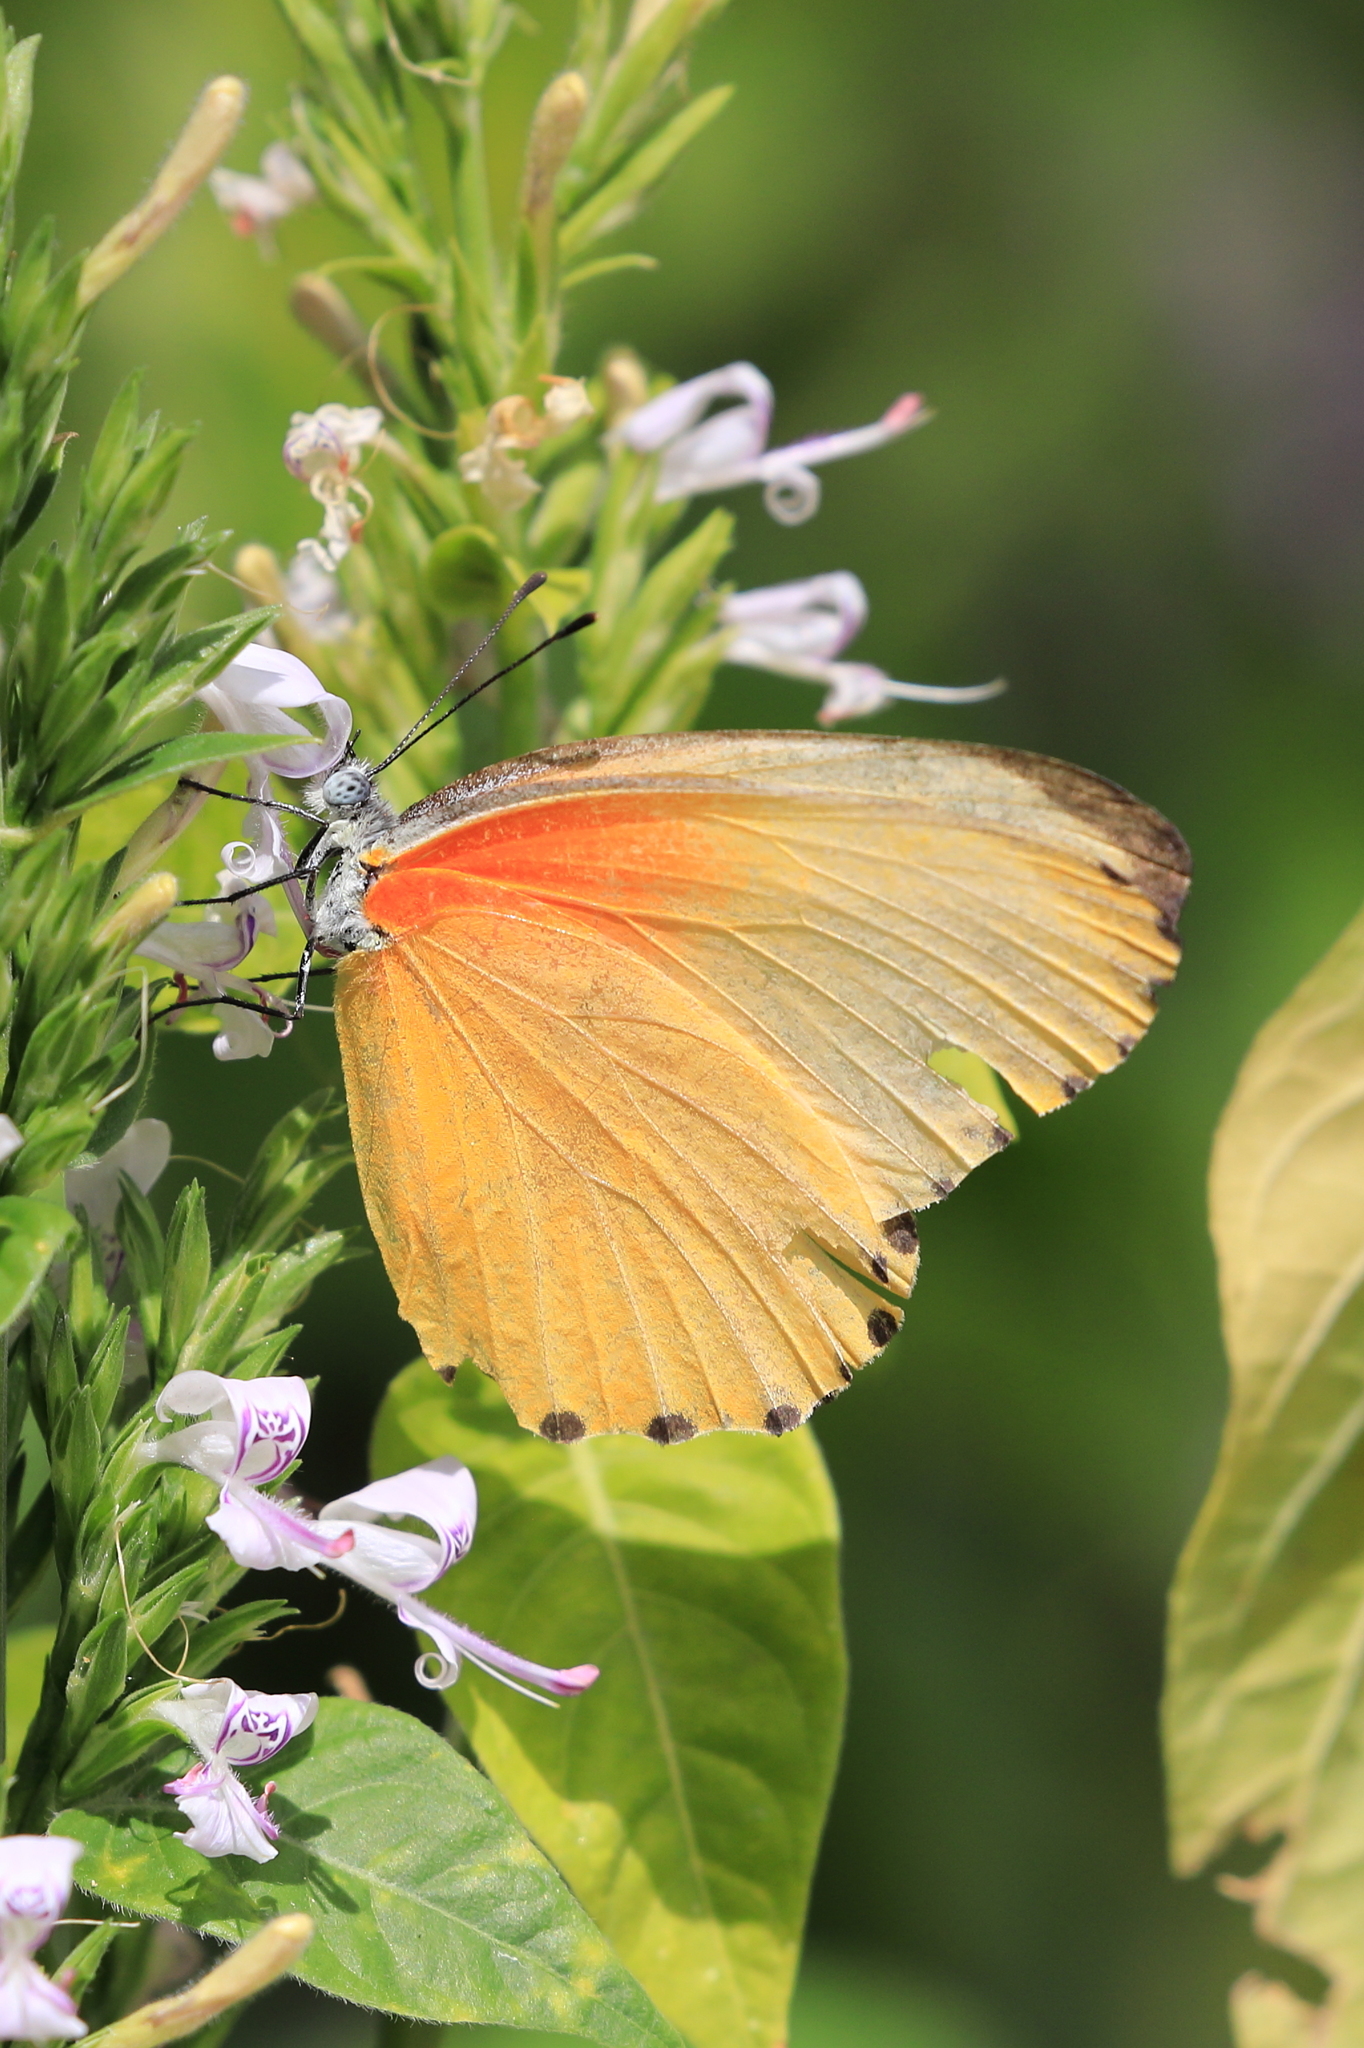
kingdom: Animalia
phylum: Arthropoda
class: Insecta
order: Lepidoptera
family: Pieridae
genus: Mylothris
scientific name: Mylothris agathina
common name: Eastern dotted border
